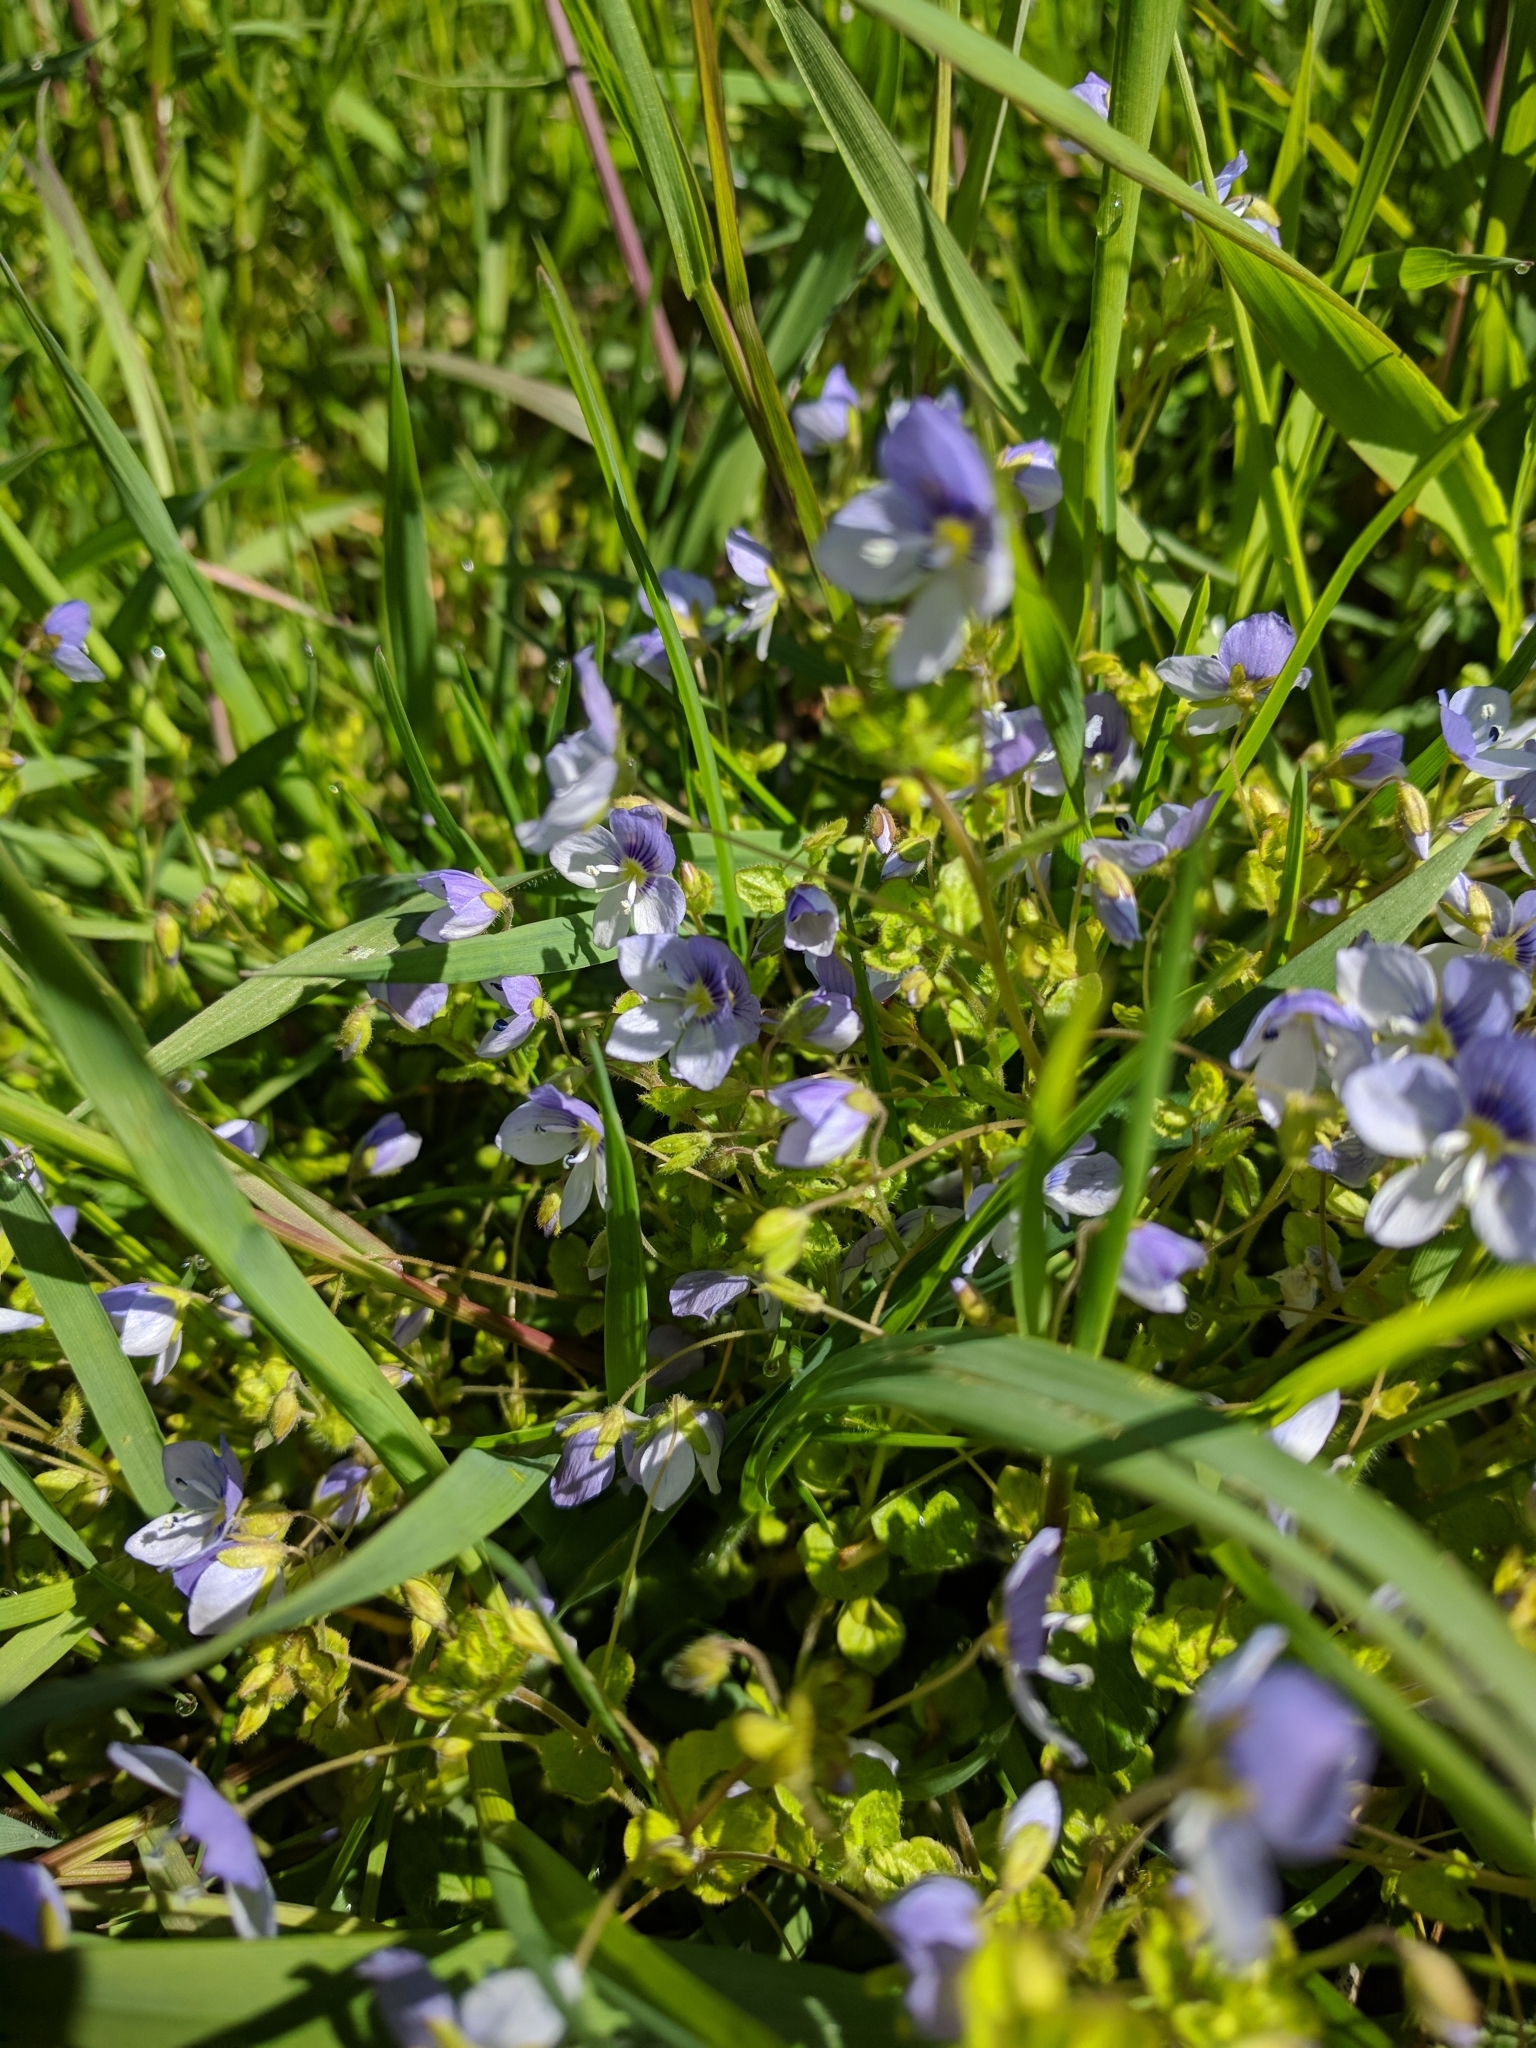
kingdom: Plantae
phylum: Tracheophyta
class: Magnoliopsida
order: Lamiales
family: Plantaginaceae
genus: Veronica
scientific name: Veronica filiformis
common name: Slender speedwell
